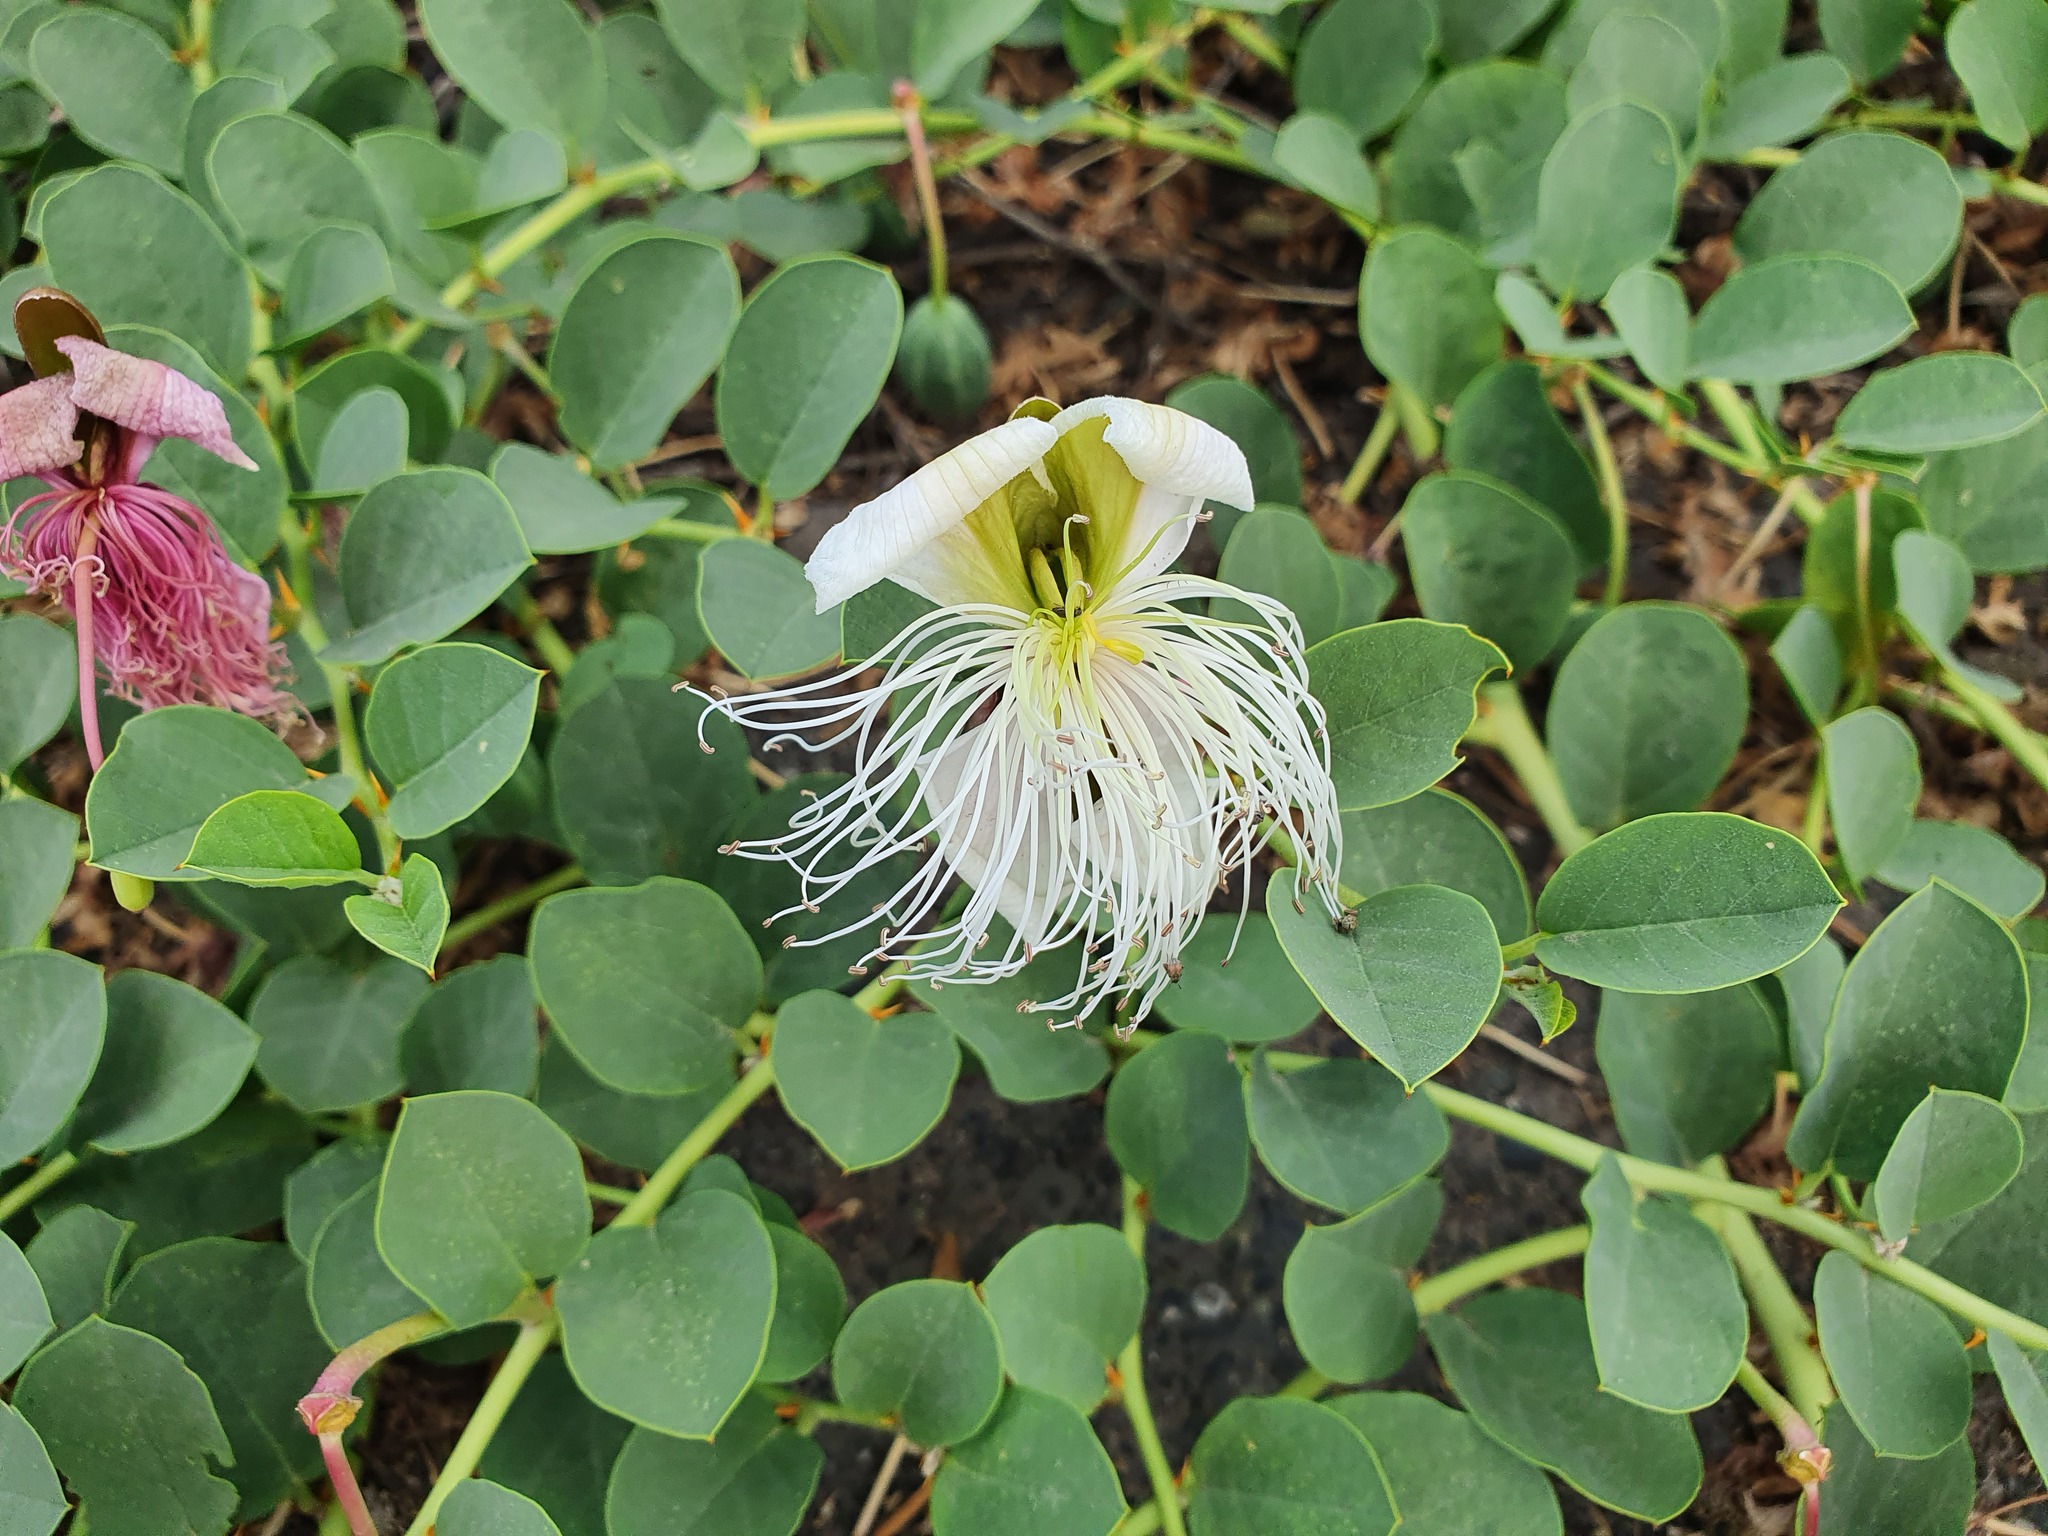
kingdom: Plantae
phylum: Tracheophyta
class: Magnoliopsida
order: Brassicales
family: Capparaceae
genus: Capparis
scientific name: Capparis spinosa
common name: Caper
